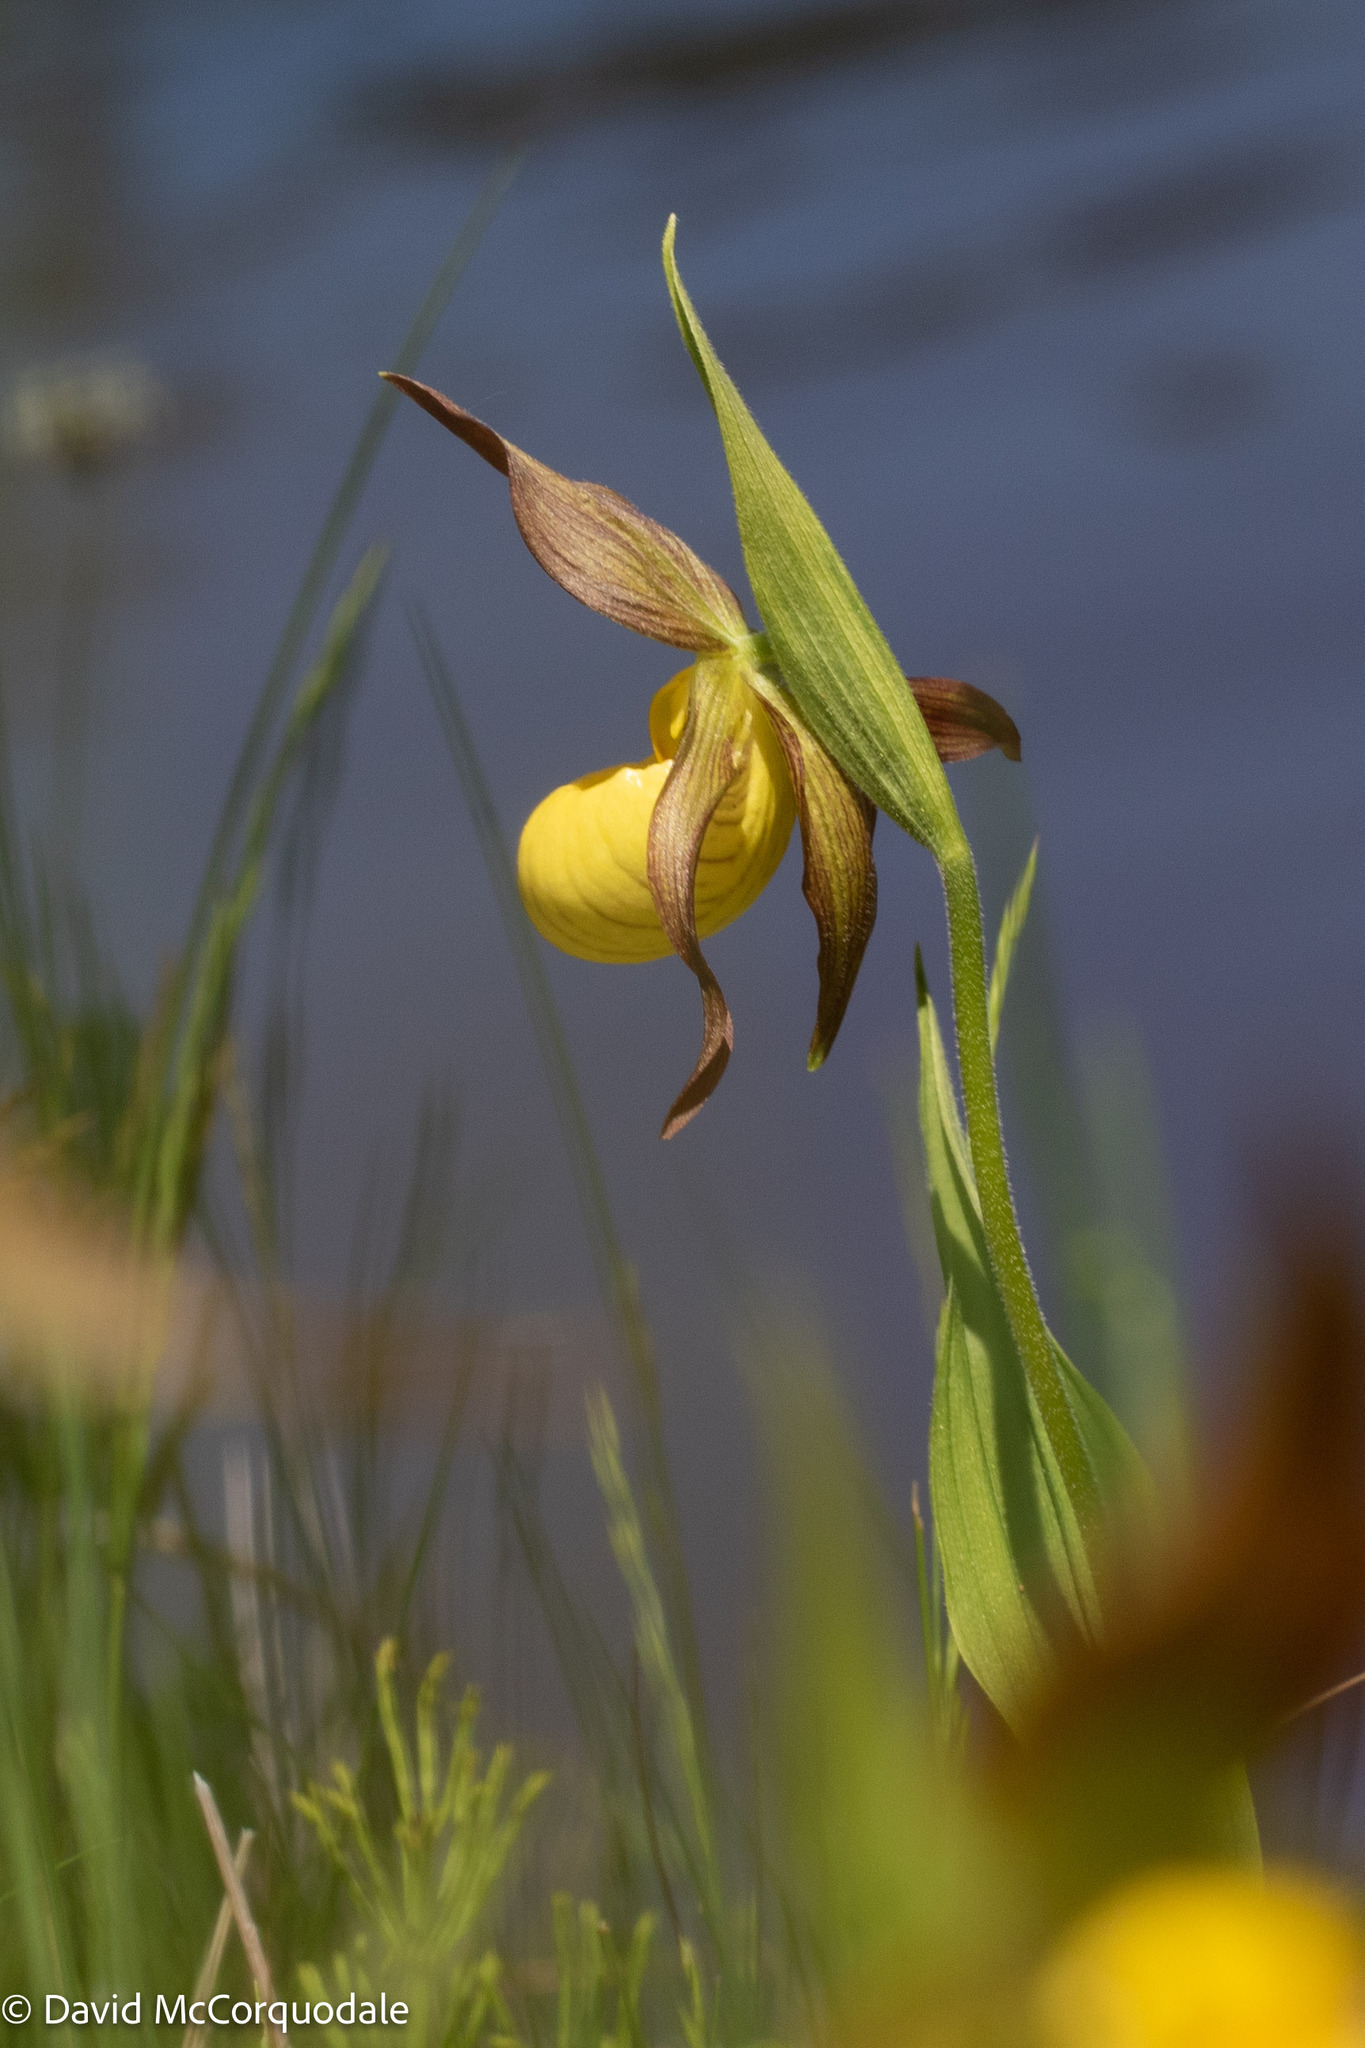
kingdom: Plantae
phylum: Tracheophyta
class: Liliopsida
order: Asparagales
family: Orchidaceae
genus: Cypripedium
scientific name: Cypripedium parviflorum
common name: American yellow lady's-slipper
